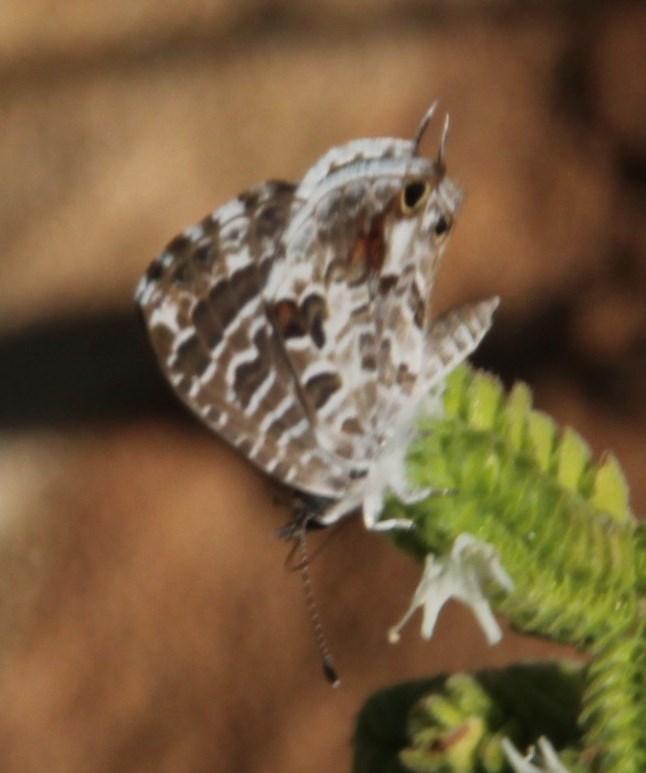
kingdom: Animalia
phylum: Arthropoda
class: Insecta
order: Lepidoptera
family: Lycaenidae
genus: Cacyreus
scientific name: Cacyreus lingeus
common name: Bush bronze
